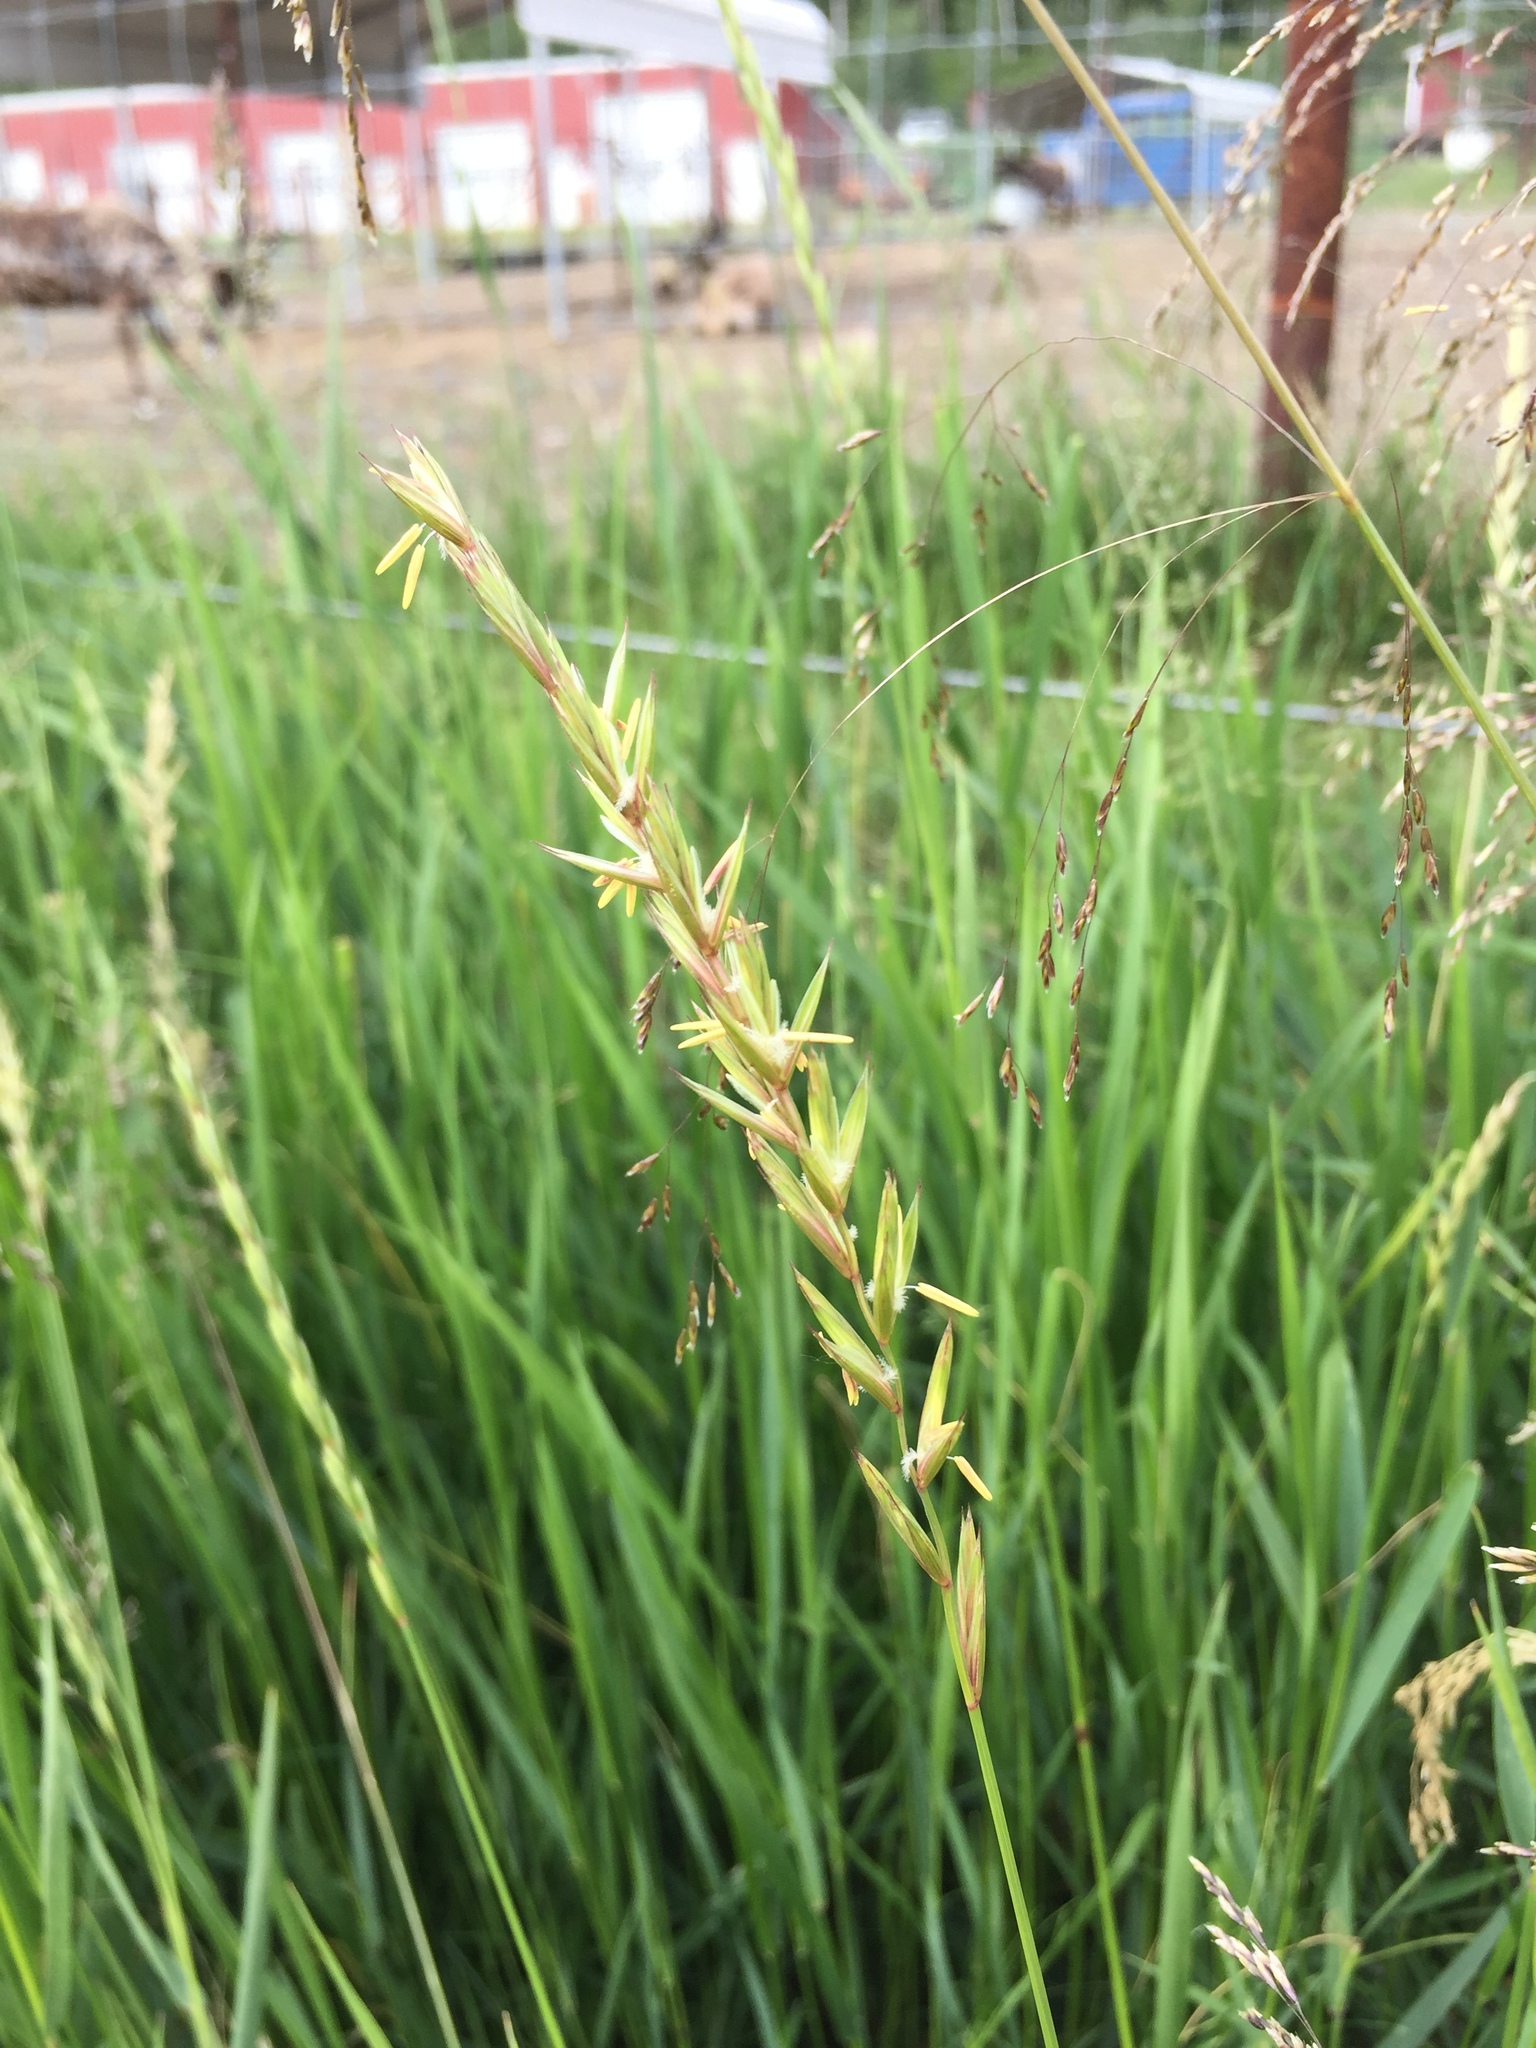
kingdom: Plantae
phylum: Tracheophyta
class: Liliopsida
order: Poales
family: Poaceae
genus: Elymus
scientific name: Elymus repens
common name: Quackgrass
